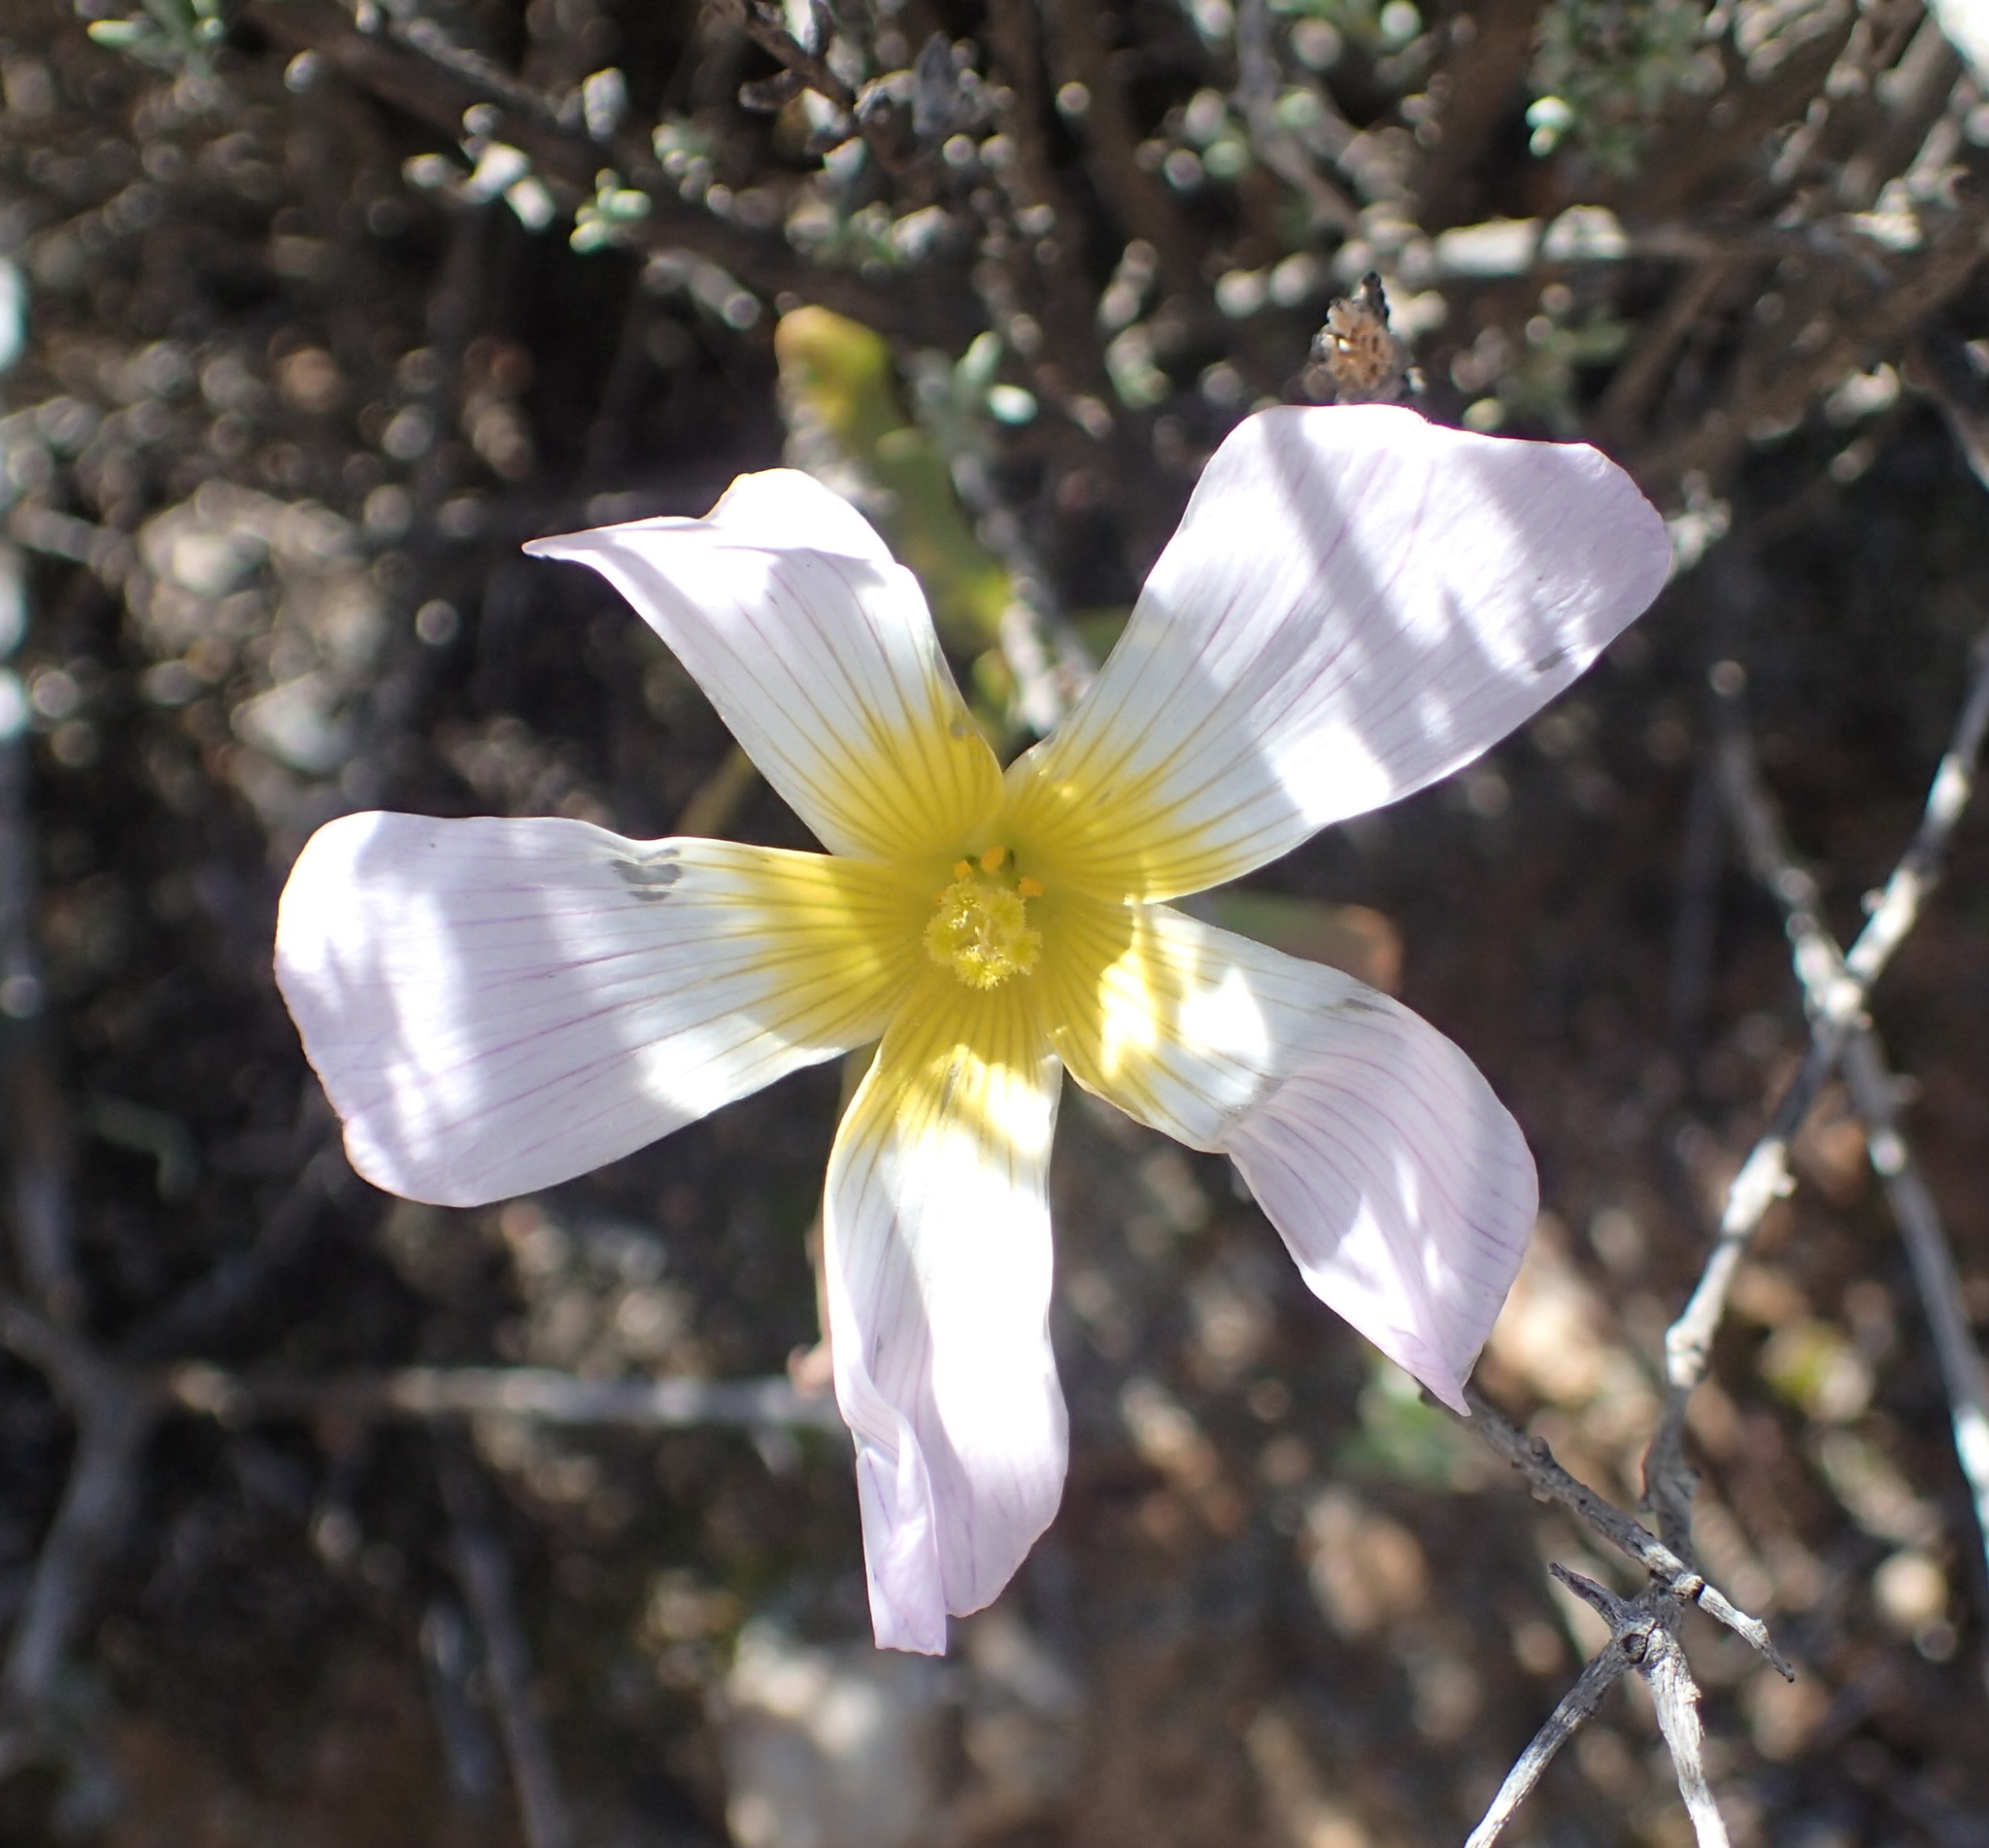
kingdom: Plantae
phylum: Tracheophyta
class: Magnoliopsida
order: Oxalidales
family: Oxalidaceae
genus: Oxalis
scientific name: Oxalis obtusa
